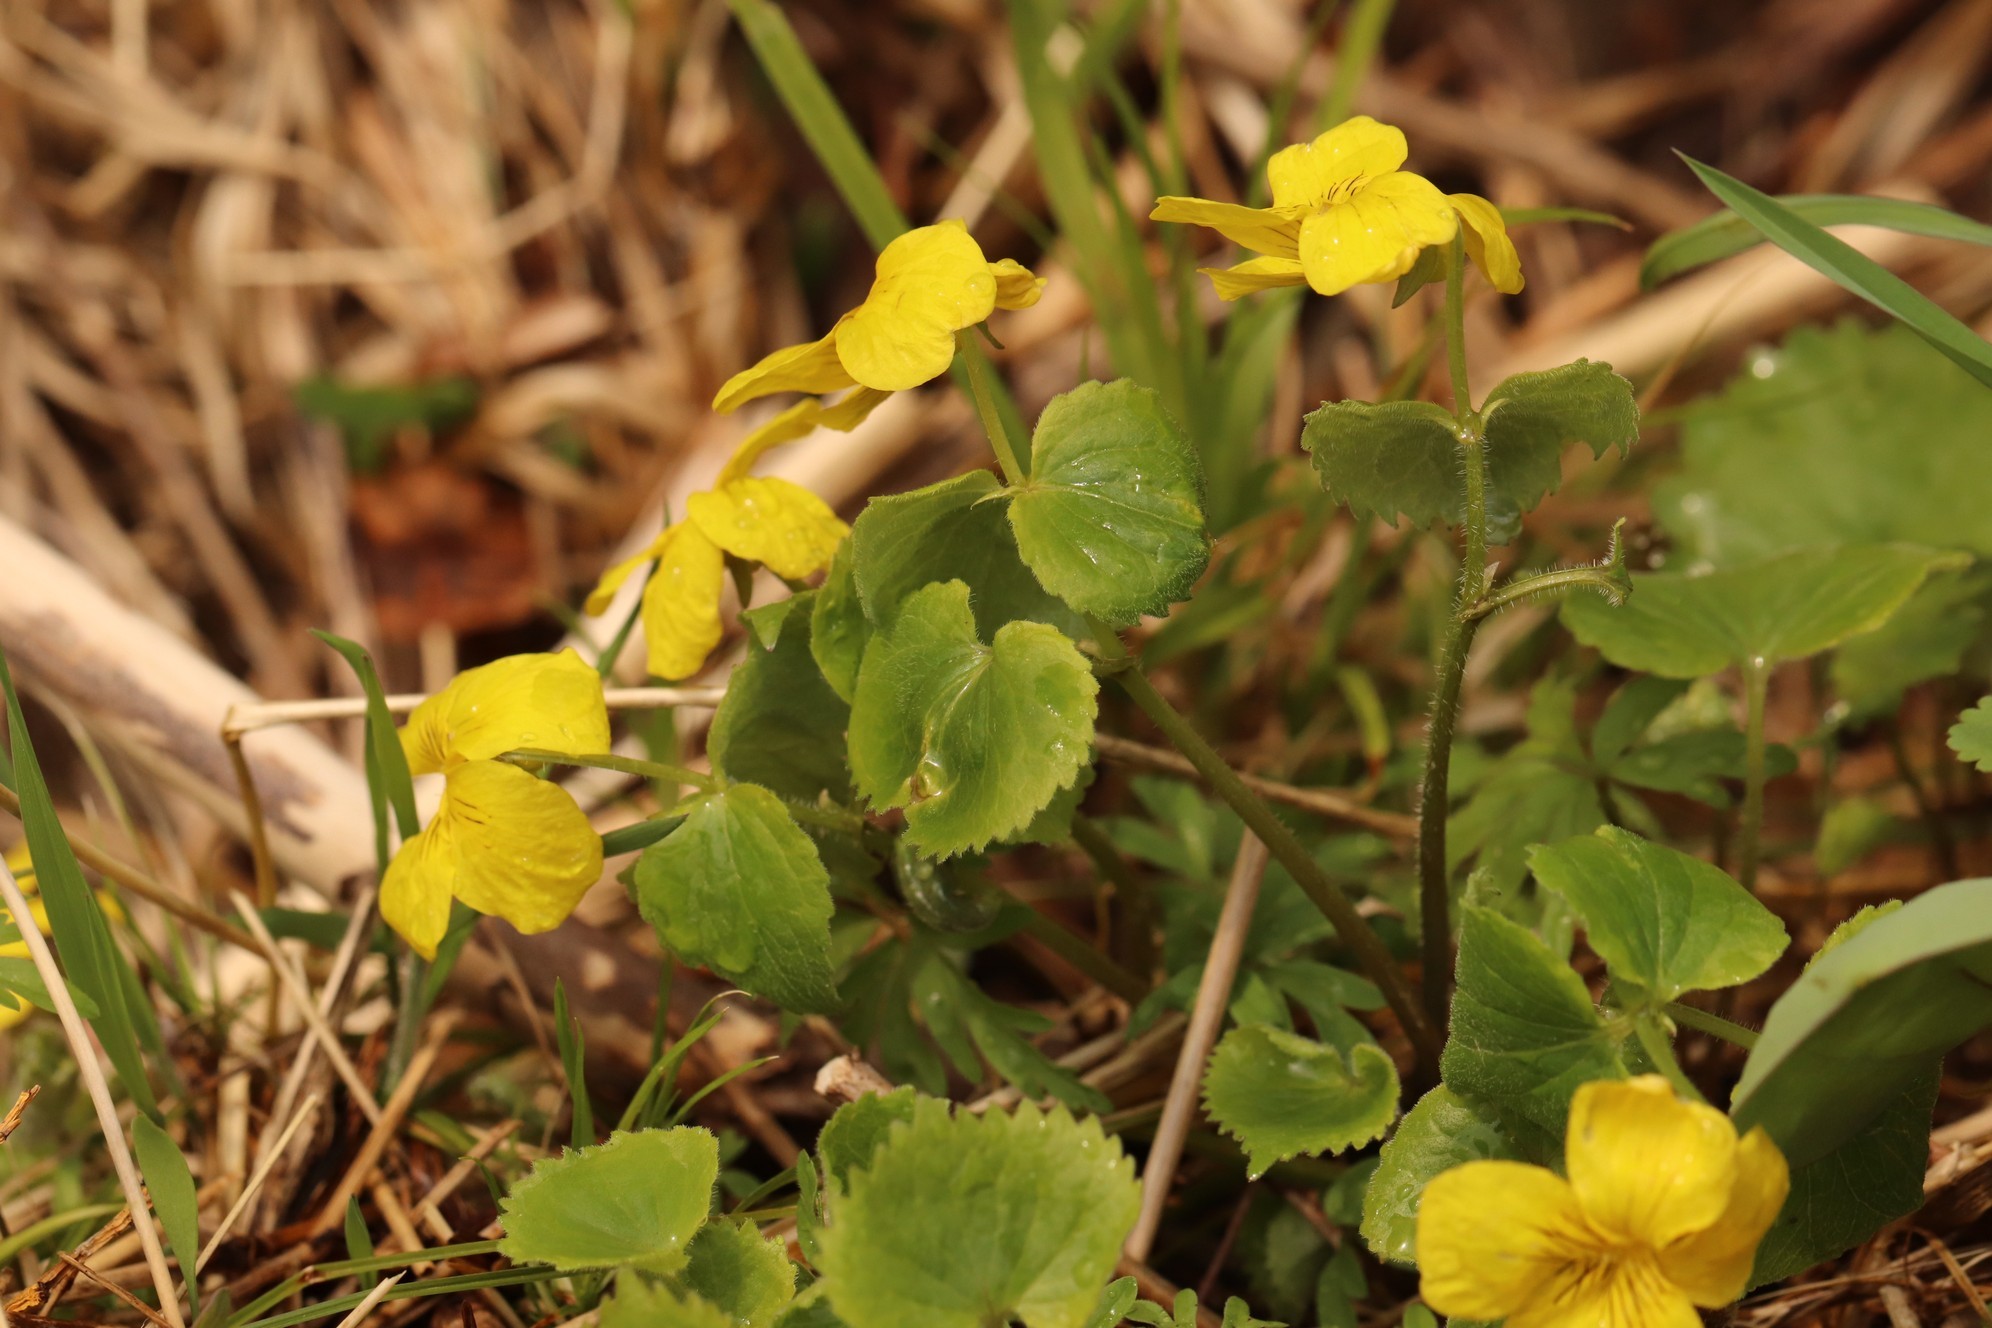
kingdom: Plantae
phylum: Tracheophyta
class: Magnoliopsida
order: Malpighiales
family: Violaceae
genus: Viola
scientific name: Viola uniflora
